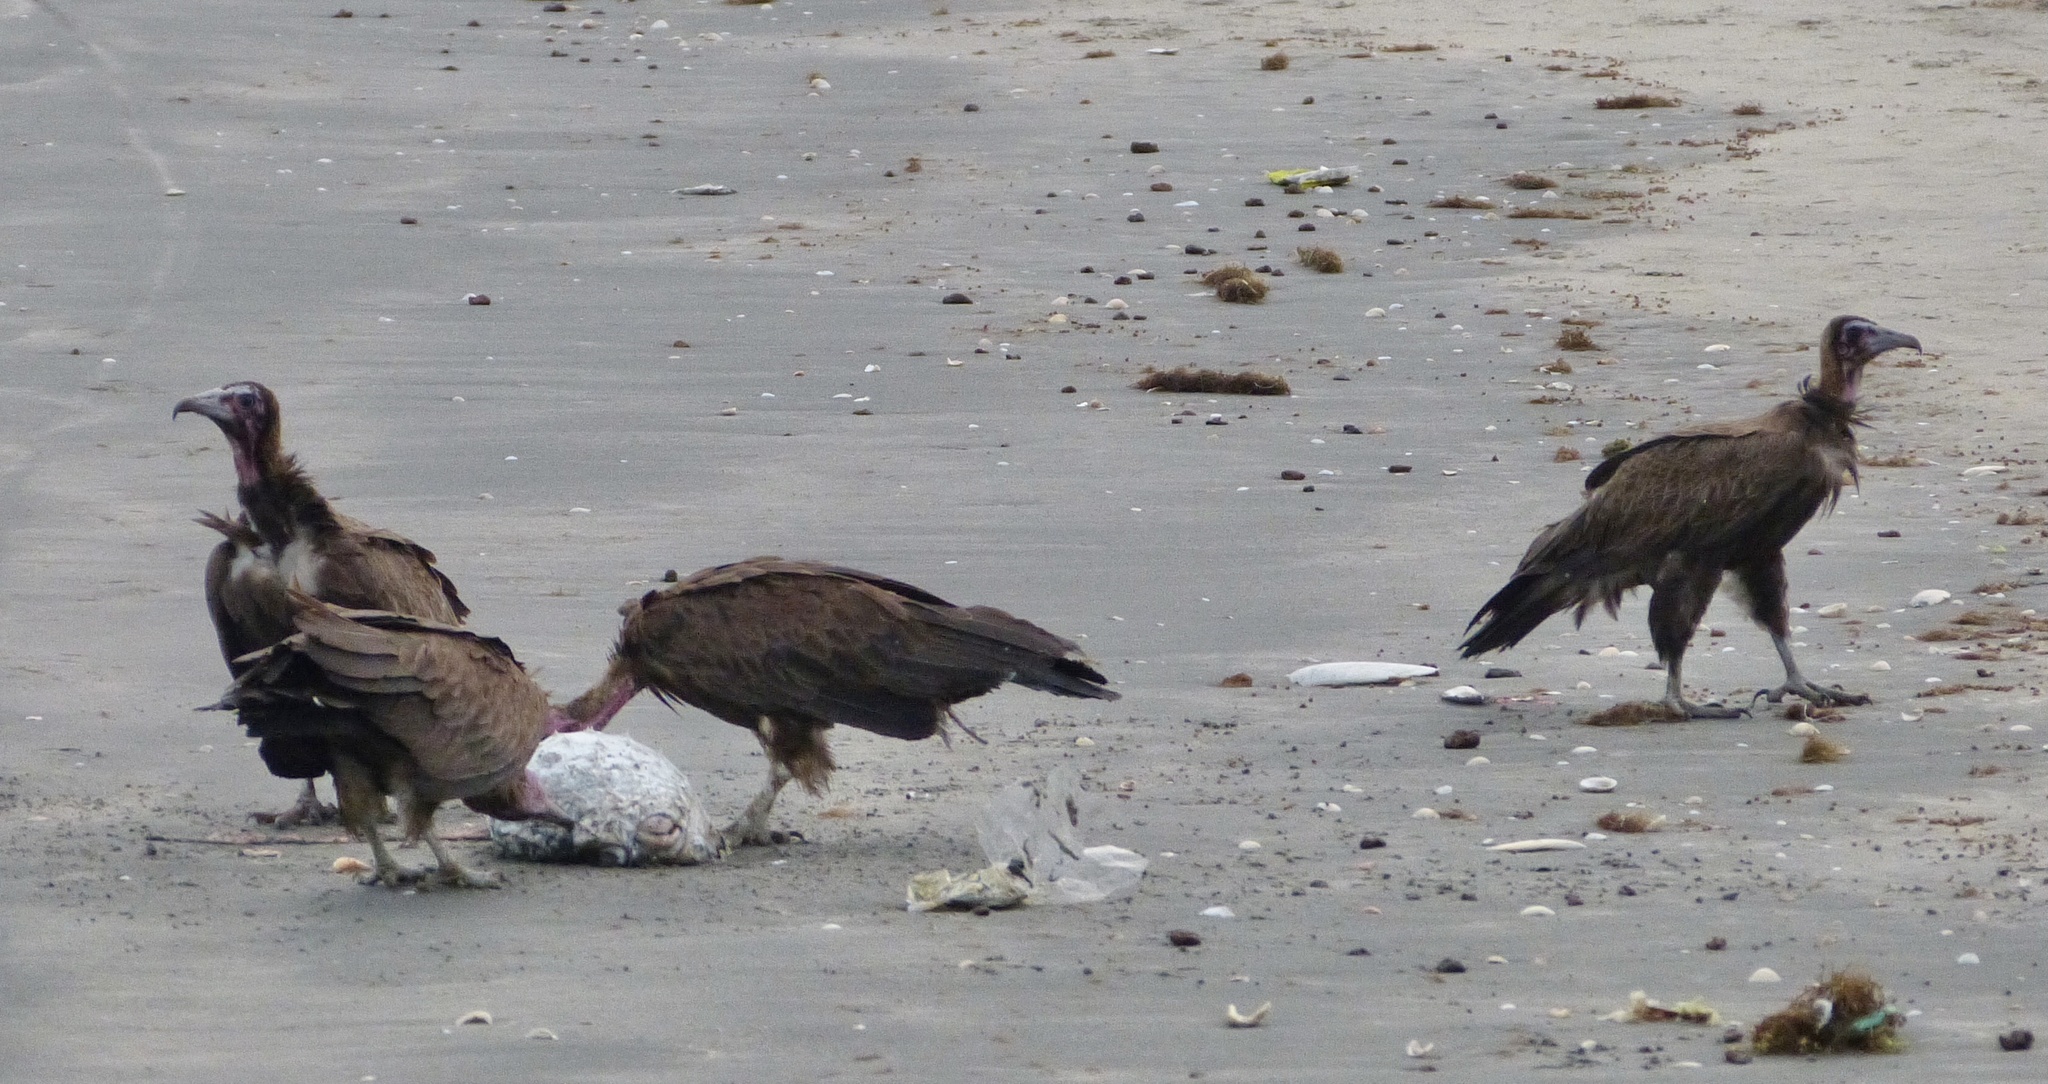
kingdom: Animalia
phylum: Chordata
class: Aves
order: Accipitriformes
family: Accipitridae
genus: Necrosyrtes
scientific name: Necrosyrtes monachus
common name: Hooded vulture
